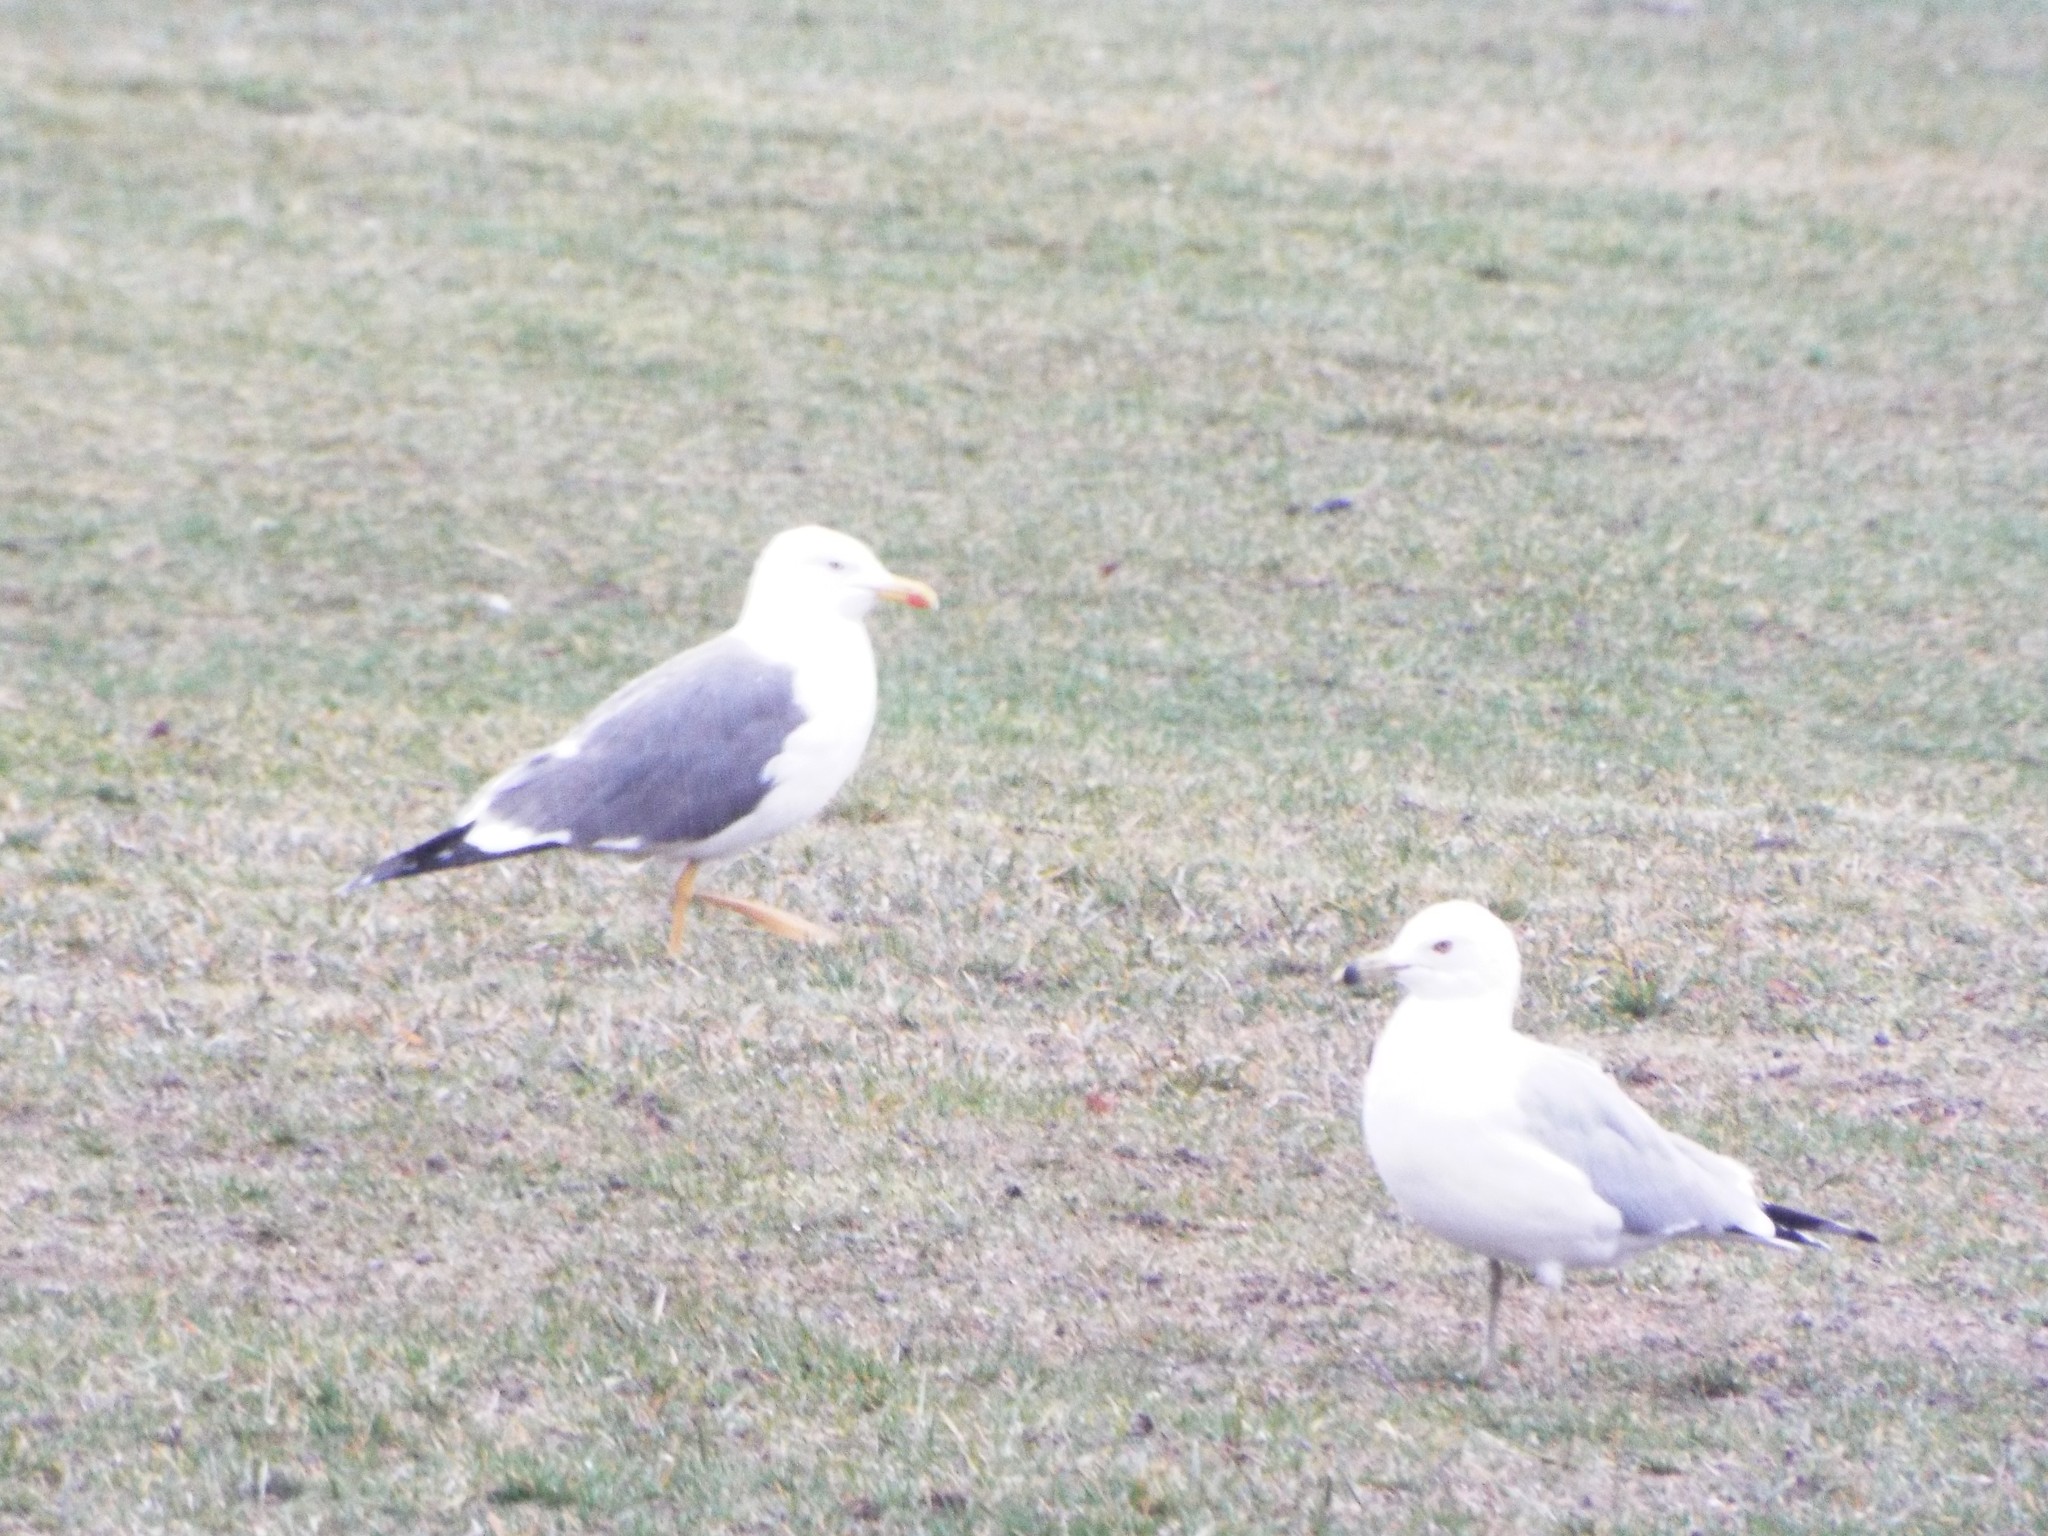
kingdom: Animalia
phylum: Chordata
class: Aves
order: Charadriiformes
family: Laridae
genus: Larus
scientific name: Larus fuscus
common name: Lesser black-backed gull
